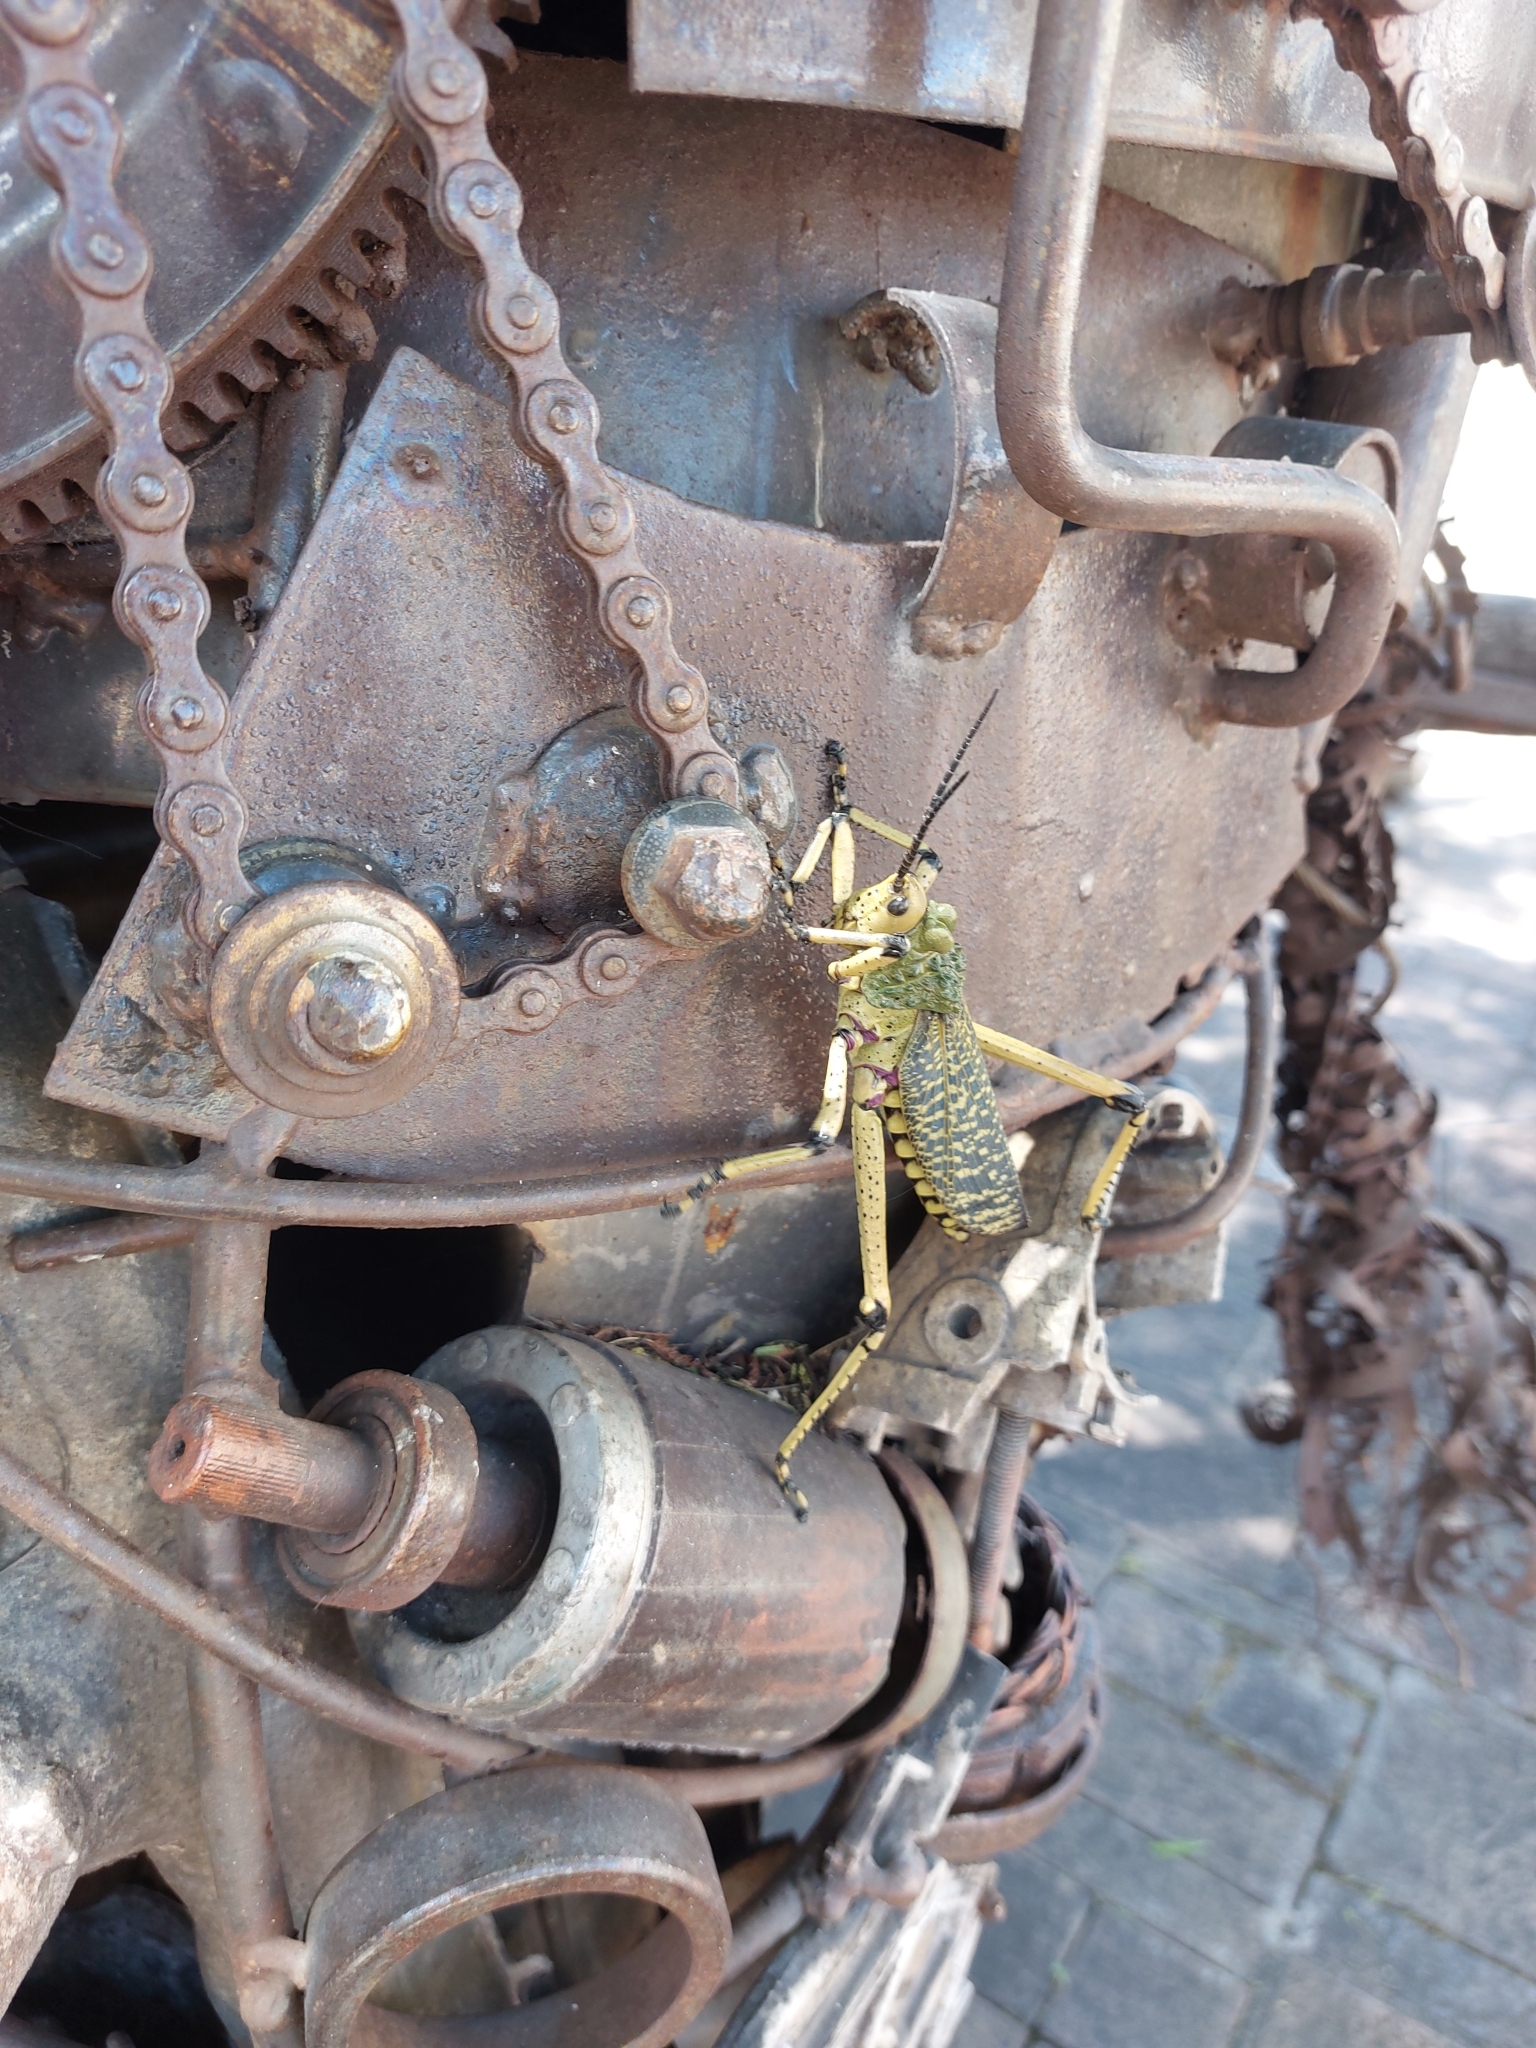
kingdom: Animalia
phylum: Arthropoda
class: Insecta
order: Orthoptera
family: Pyrgomorphidae
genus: Phymateus
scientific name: Phymateus leprosus
